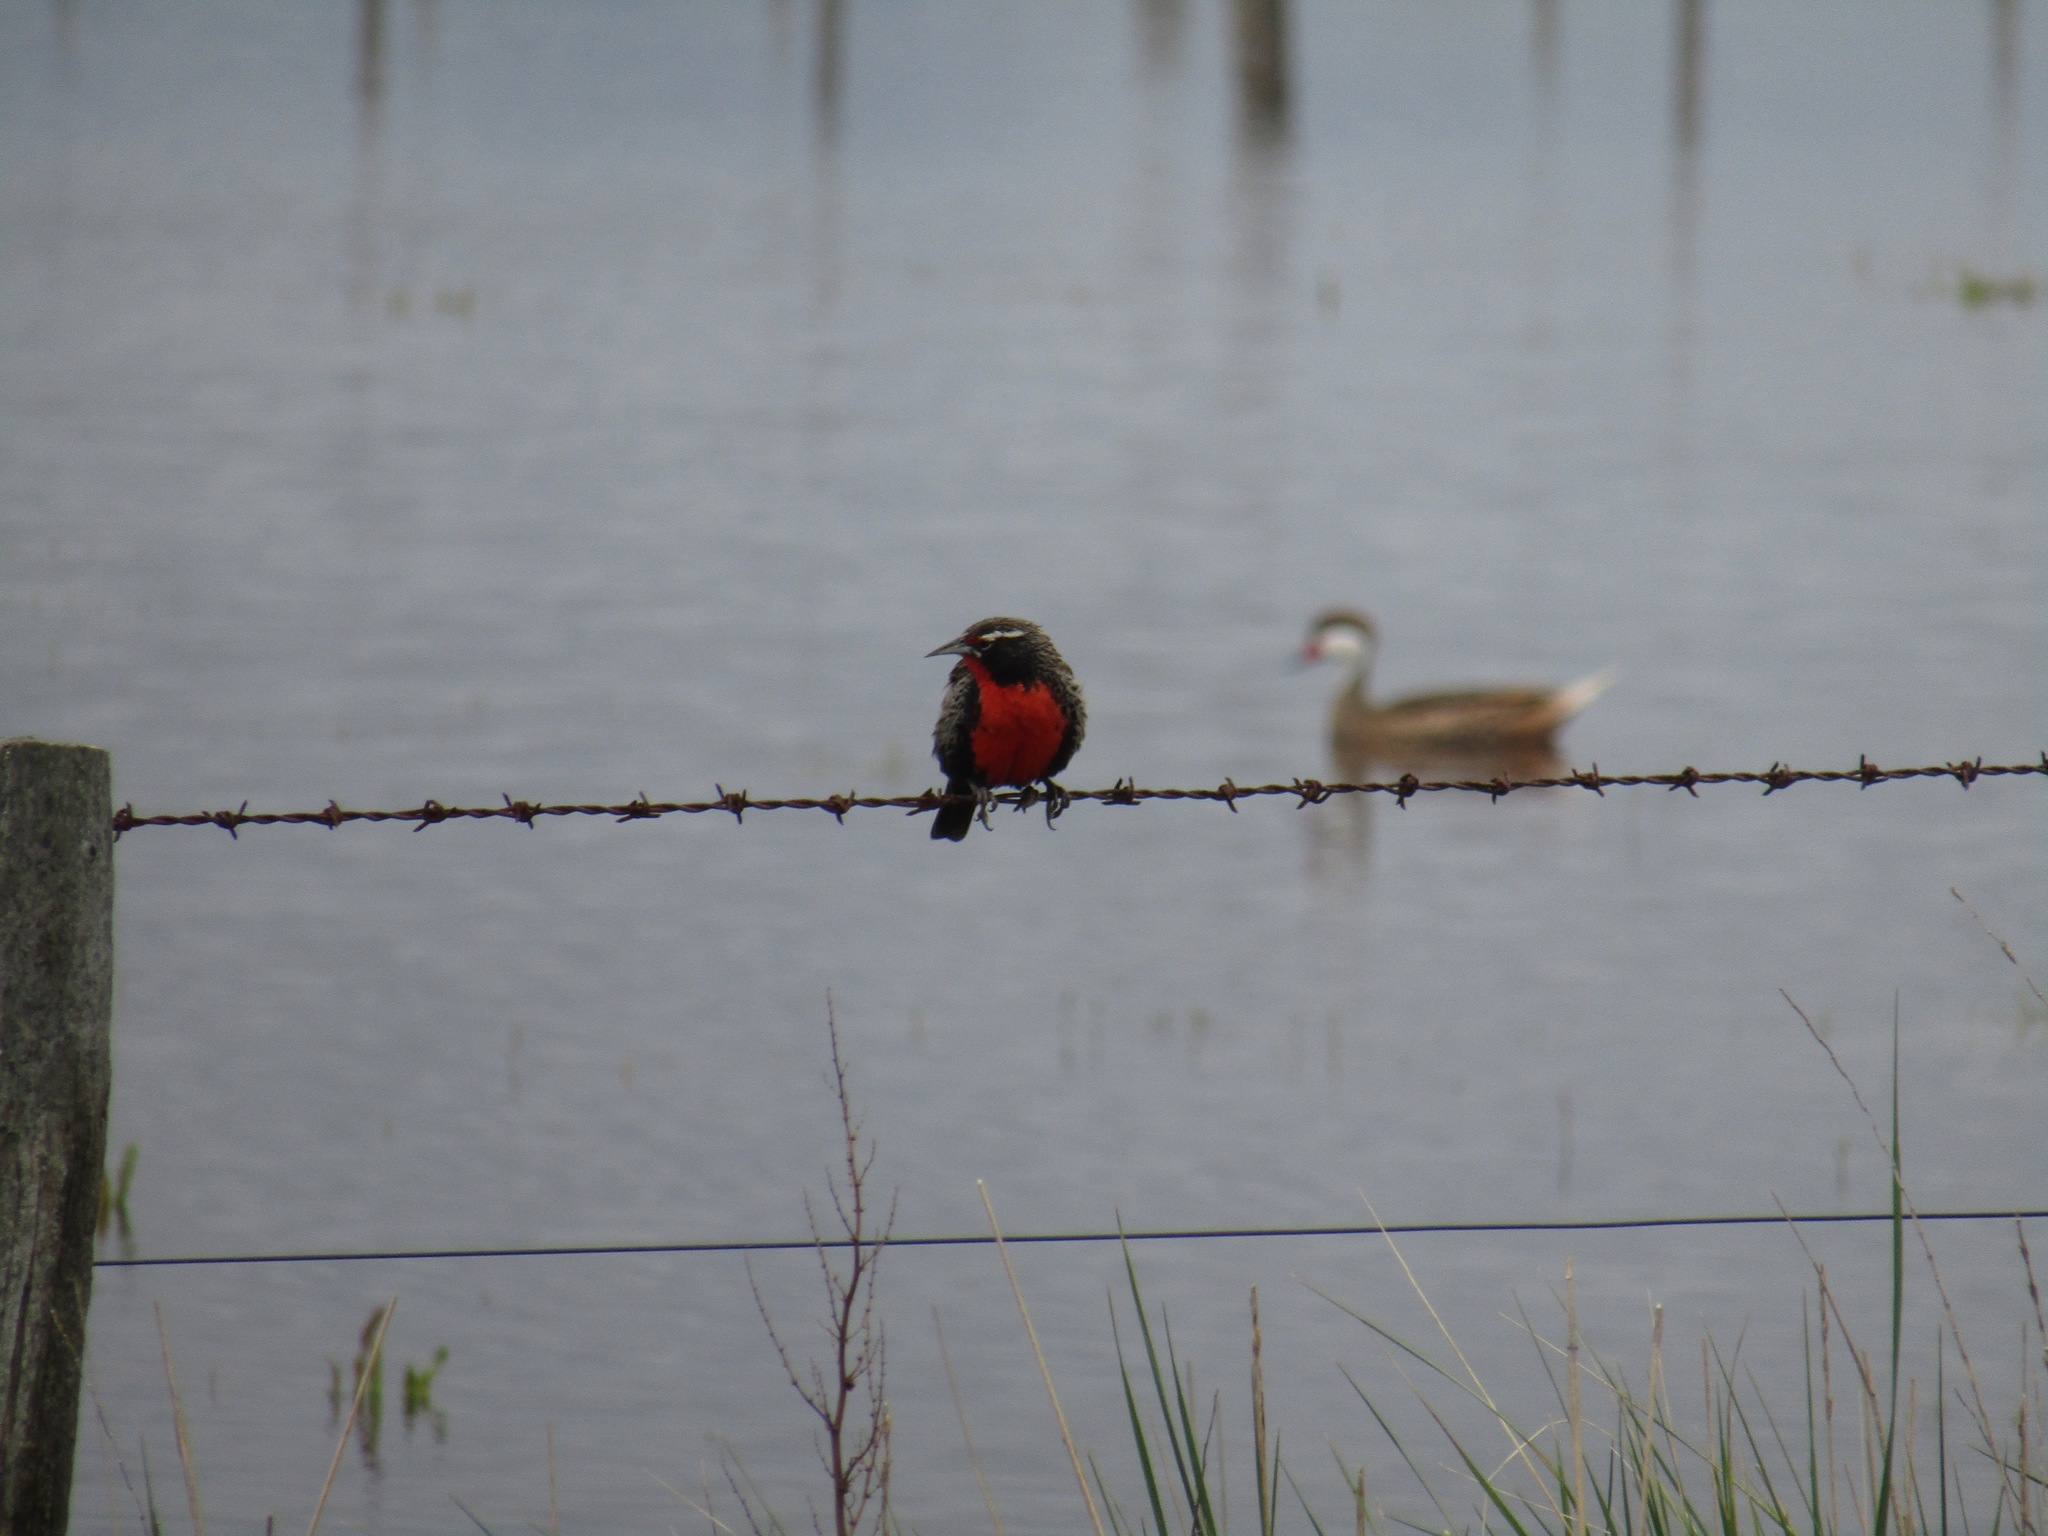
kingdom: Animalia
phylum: Chordata
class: Aves
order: Passeriformes
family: Icteridae
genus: Sturnella
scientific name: Sturnella loyca
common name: Long-tailed meadowlark
